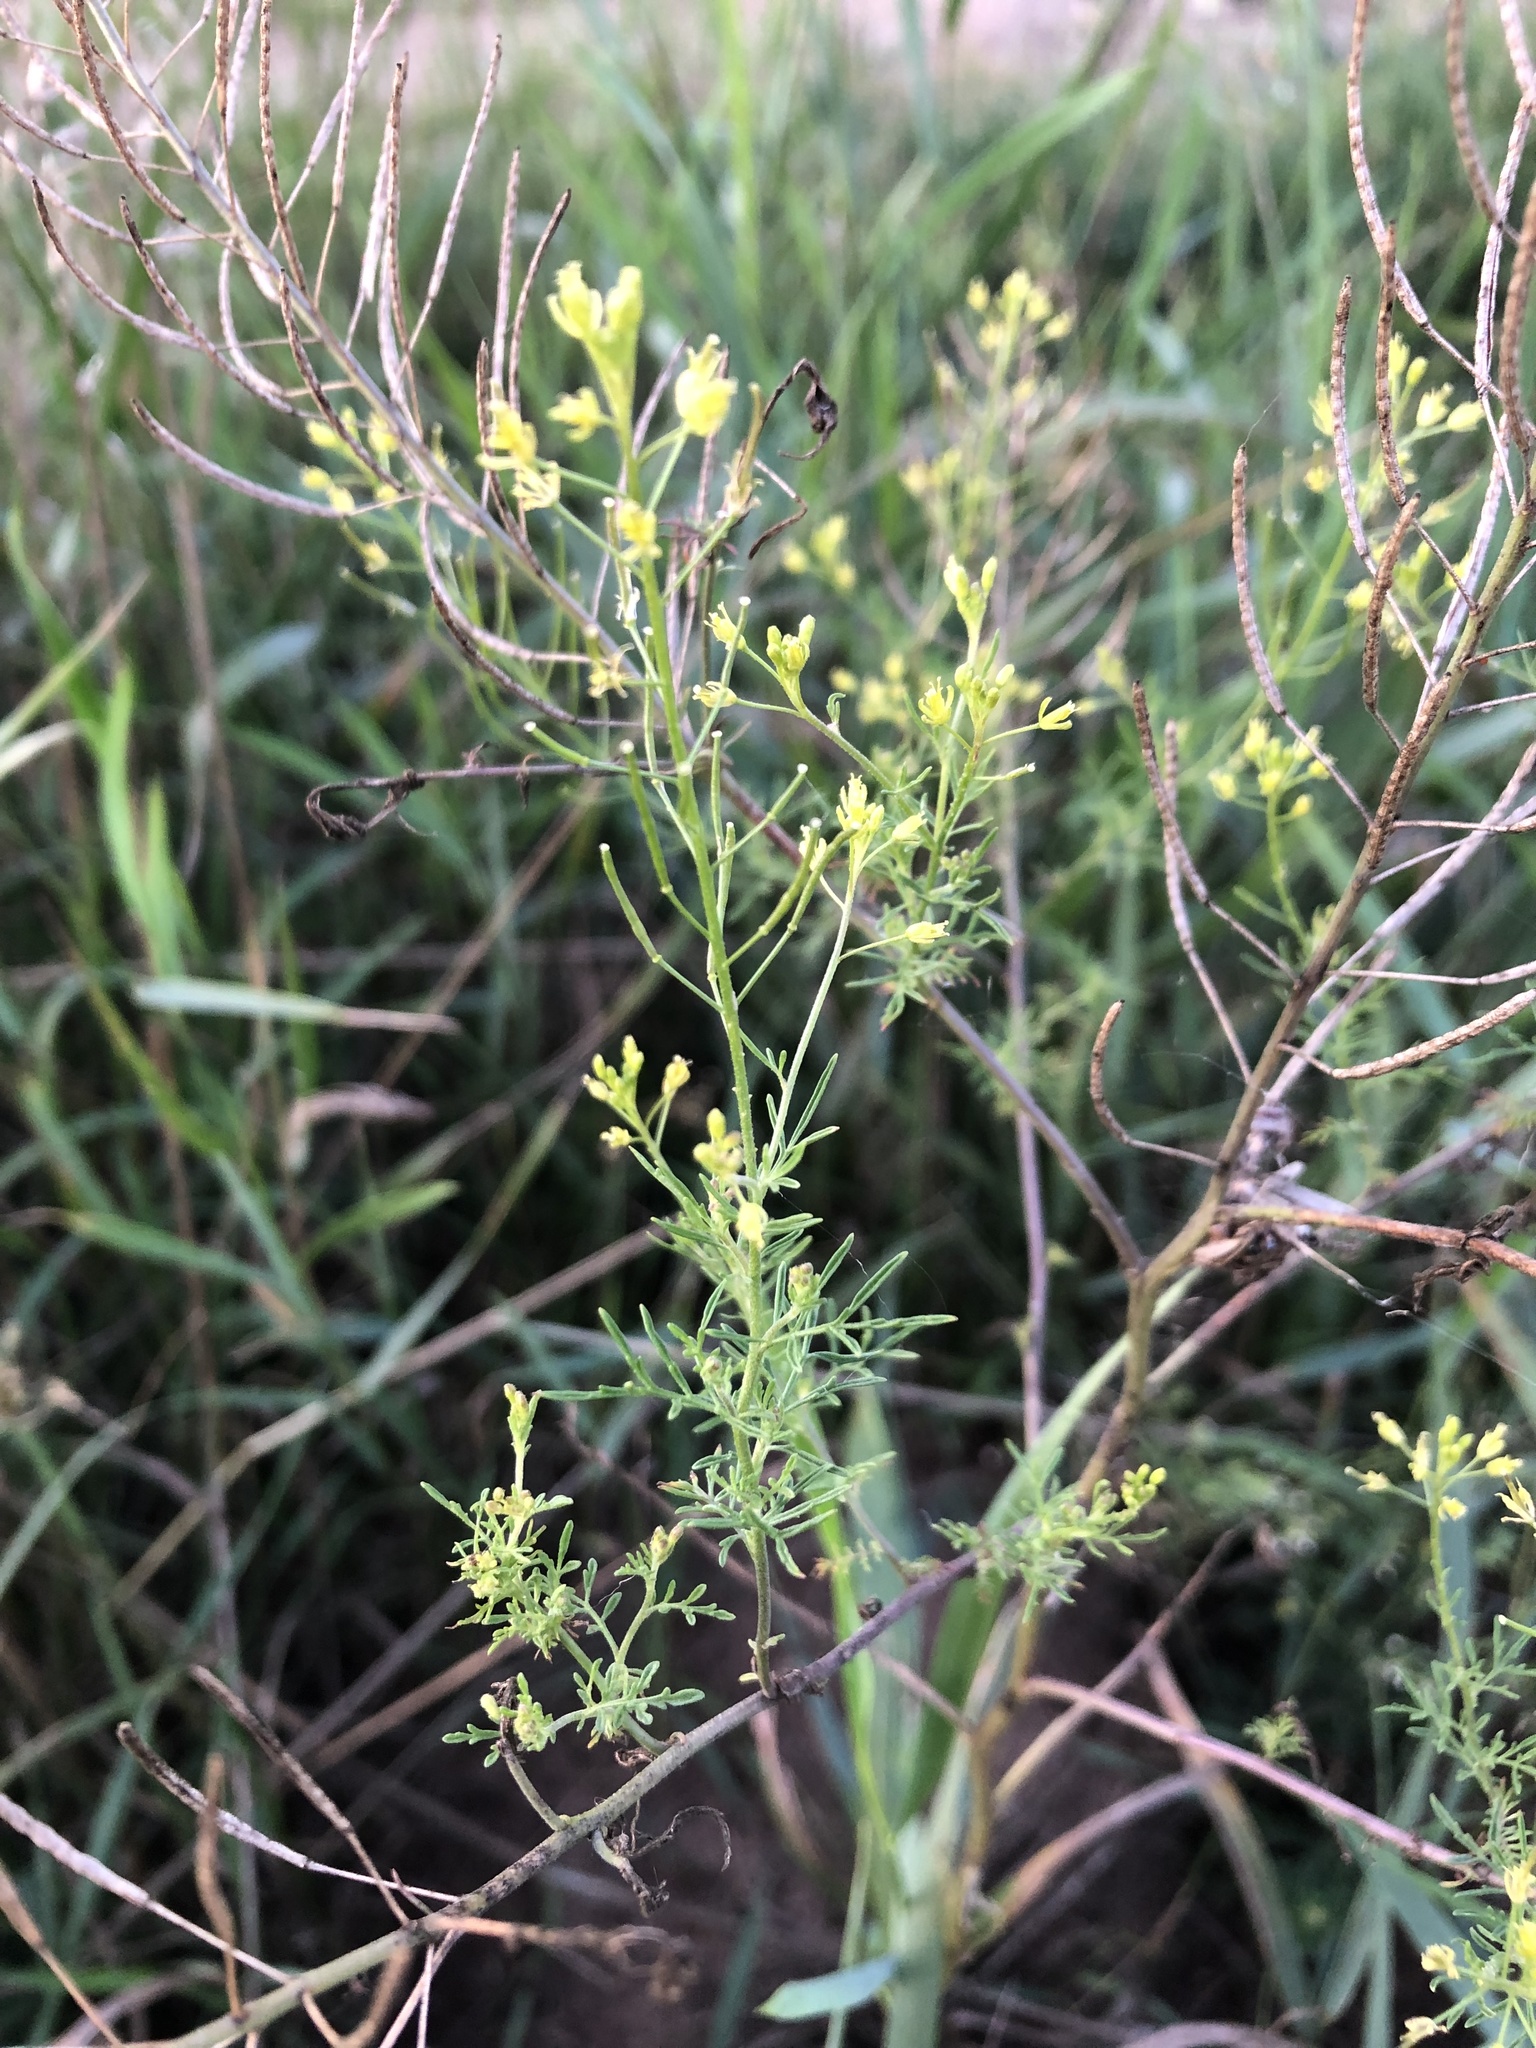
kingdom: Plantae
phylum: Tracheophyta
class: Magnoliopsida
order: Brassicales
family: Brassicaceae
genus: Descurainia
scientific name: Descurainia sophia
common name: Flixweed
